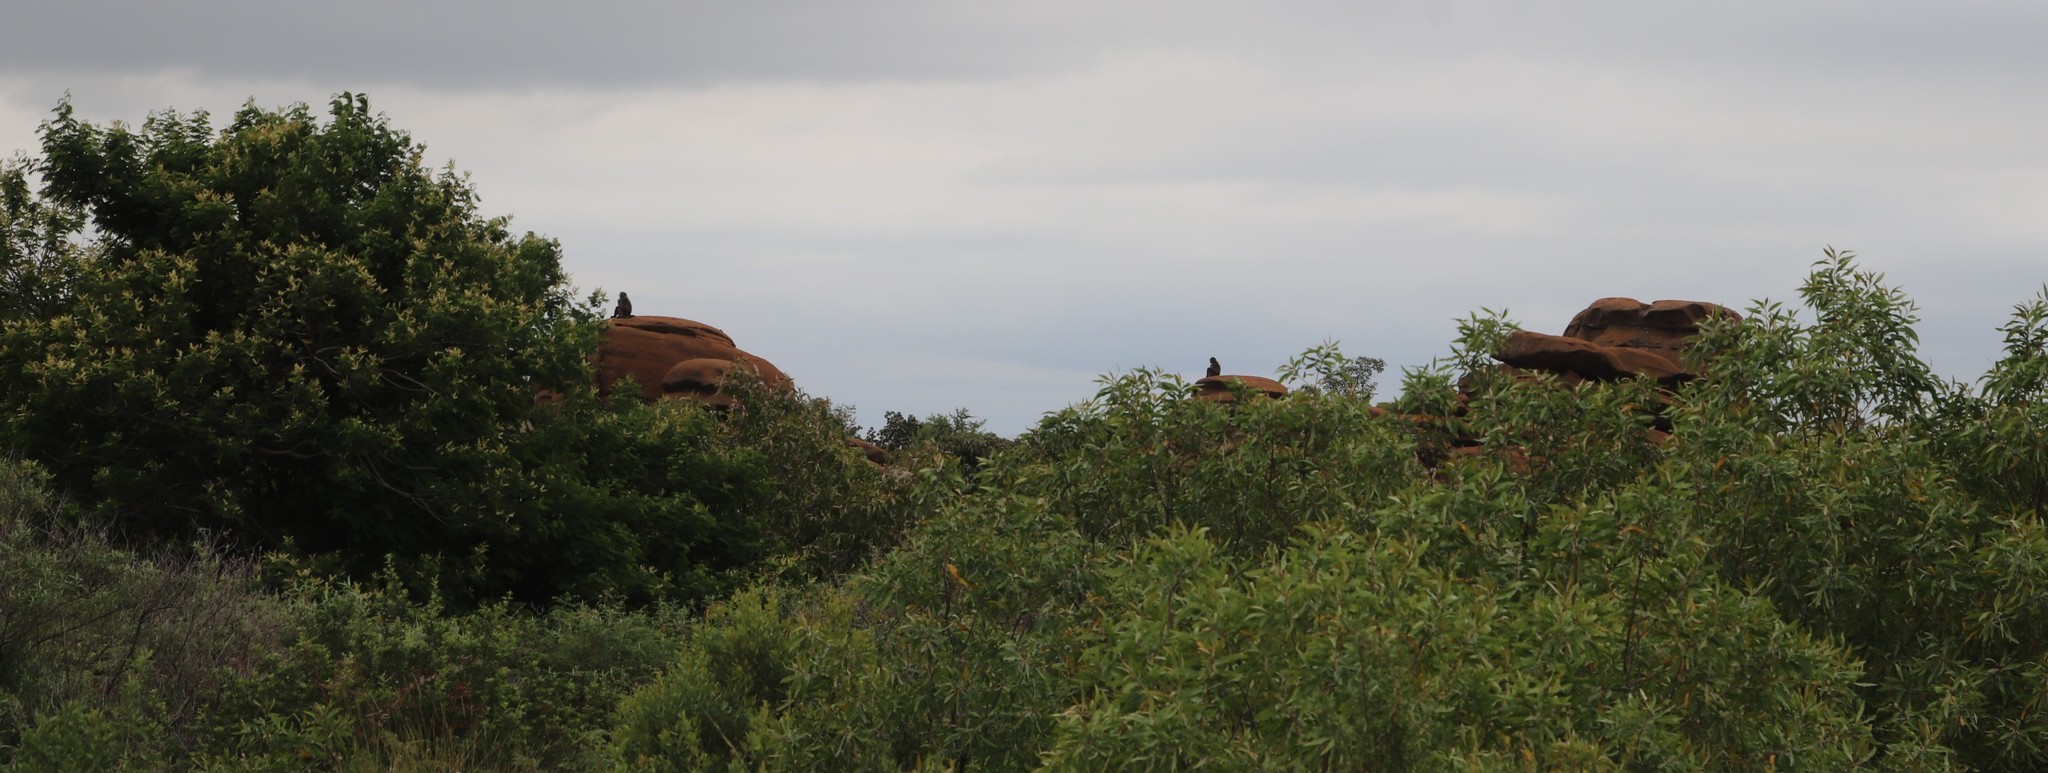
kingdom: Animalia
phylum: Chordata
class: Mammalia
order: Primates
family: Cercopithecidae
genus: Papio
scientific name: Papio ursinus
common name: Chacma baboon
